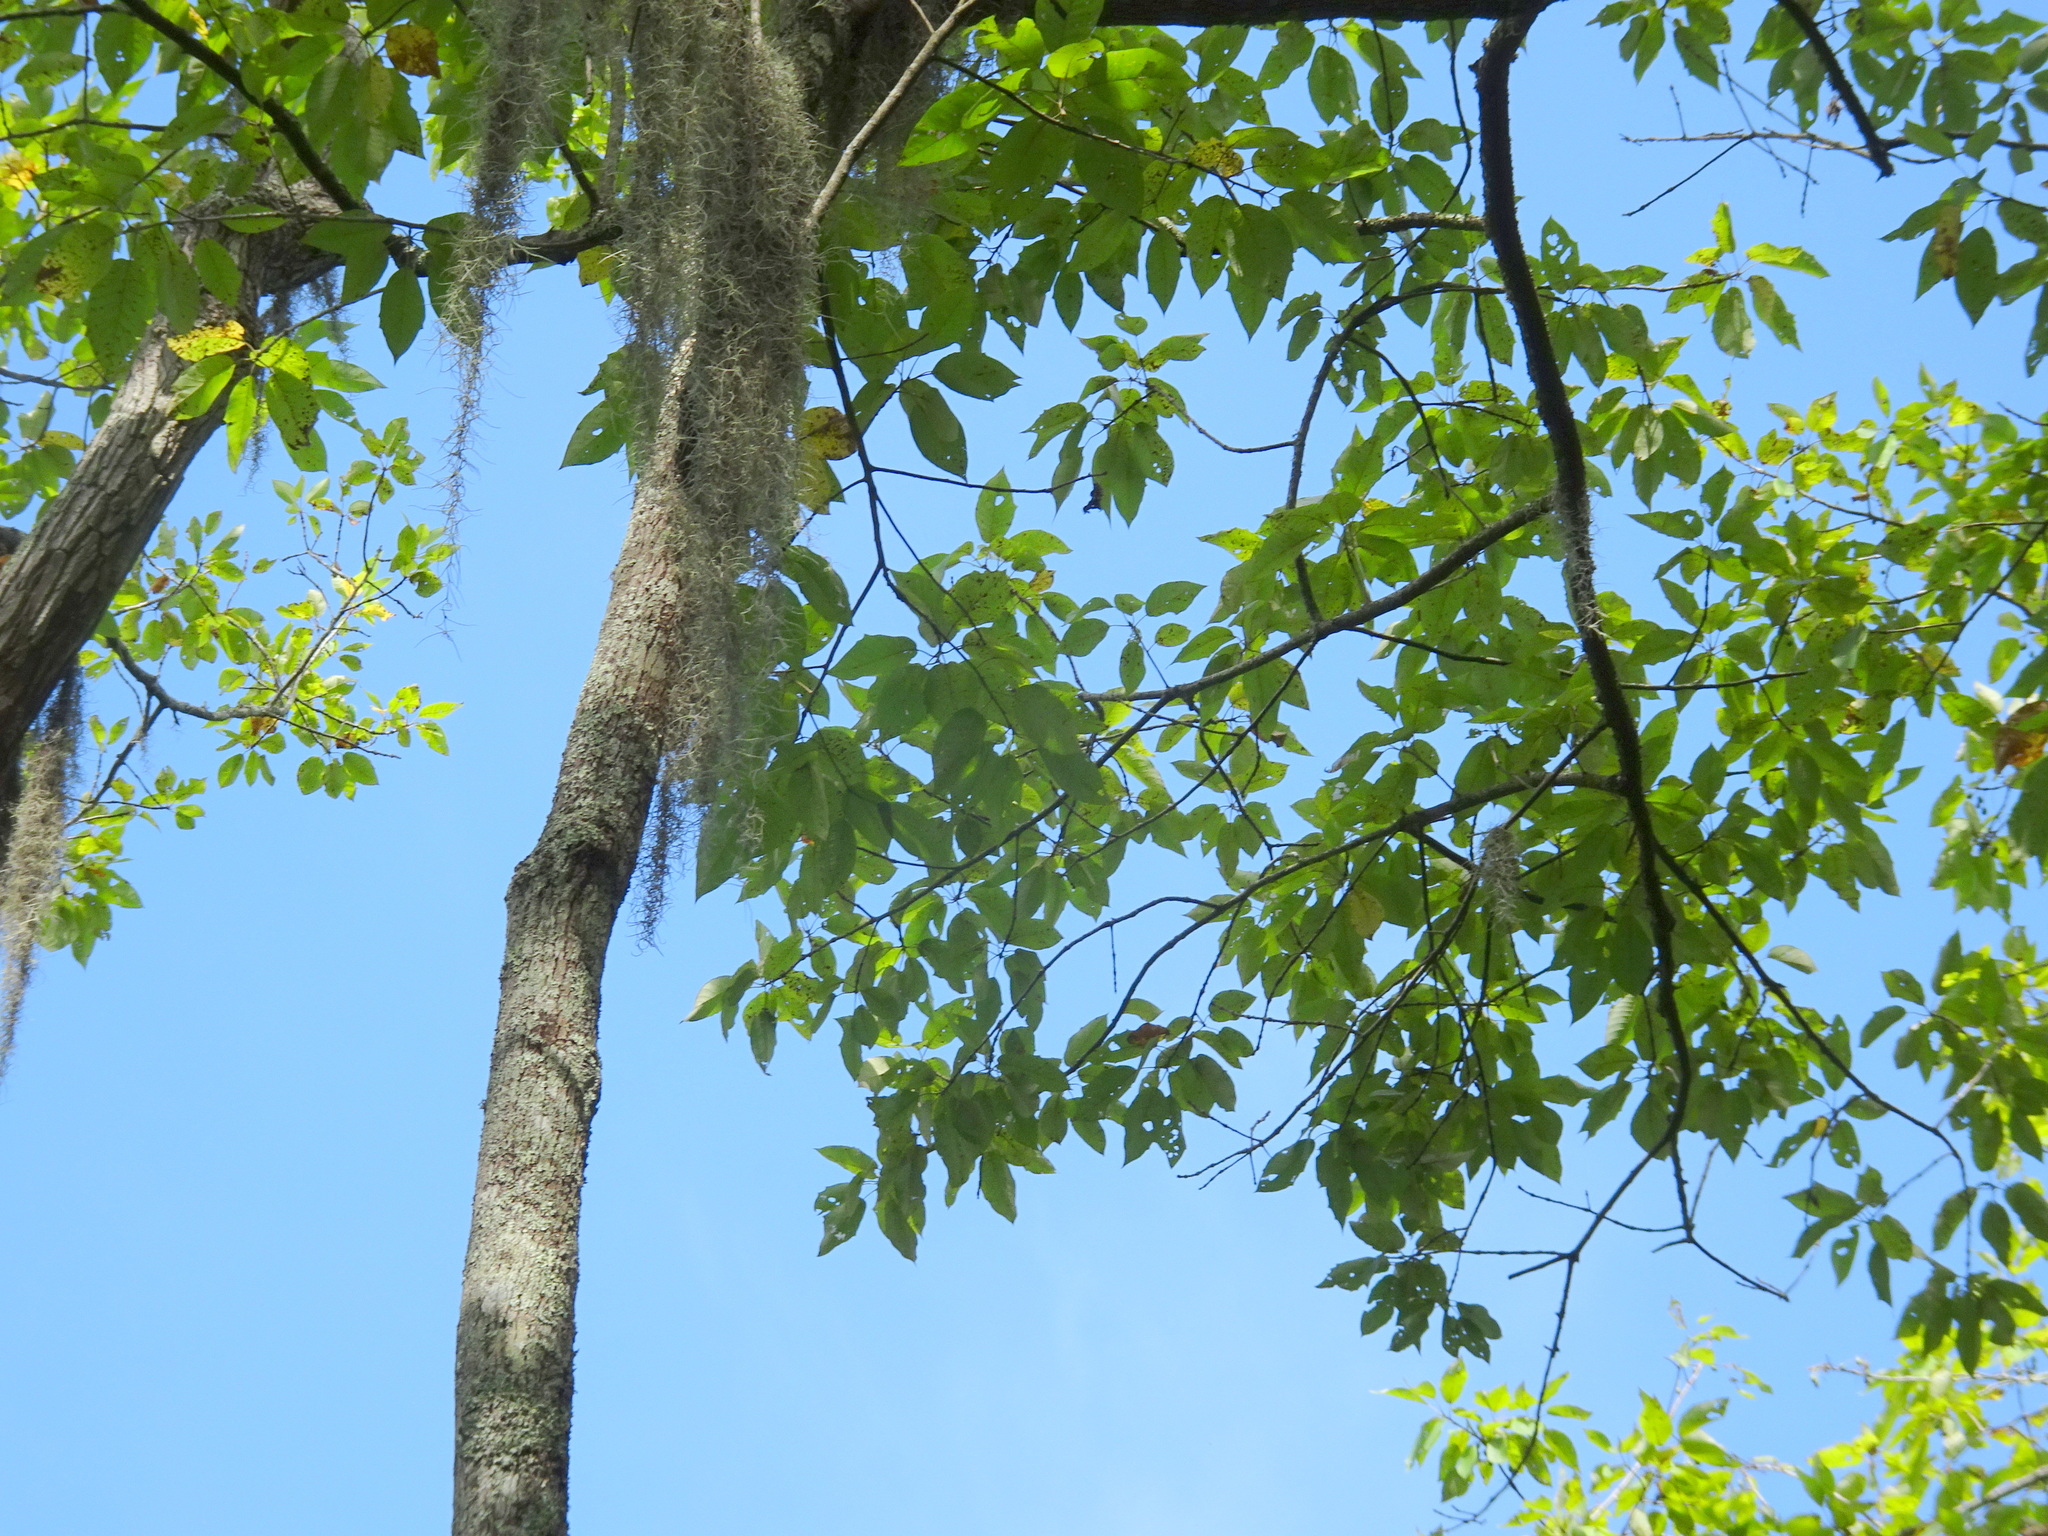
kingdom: Plantae
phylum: Tracheophyta
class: Magnoliopsida
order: Cornales
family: Nyssaceae
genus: Nyssa
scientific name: Nyssa aquatica
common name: Swamp tupelo
